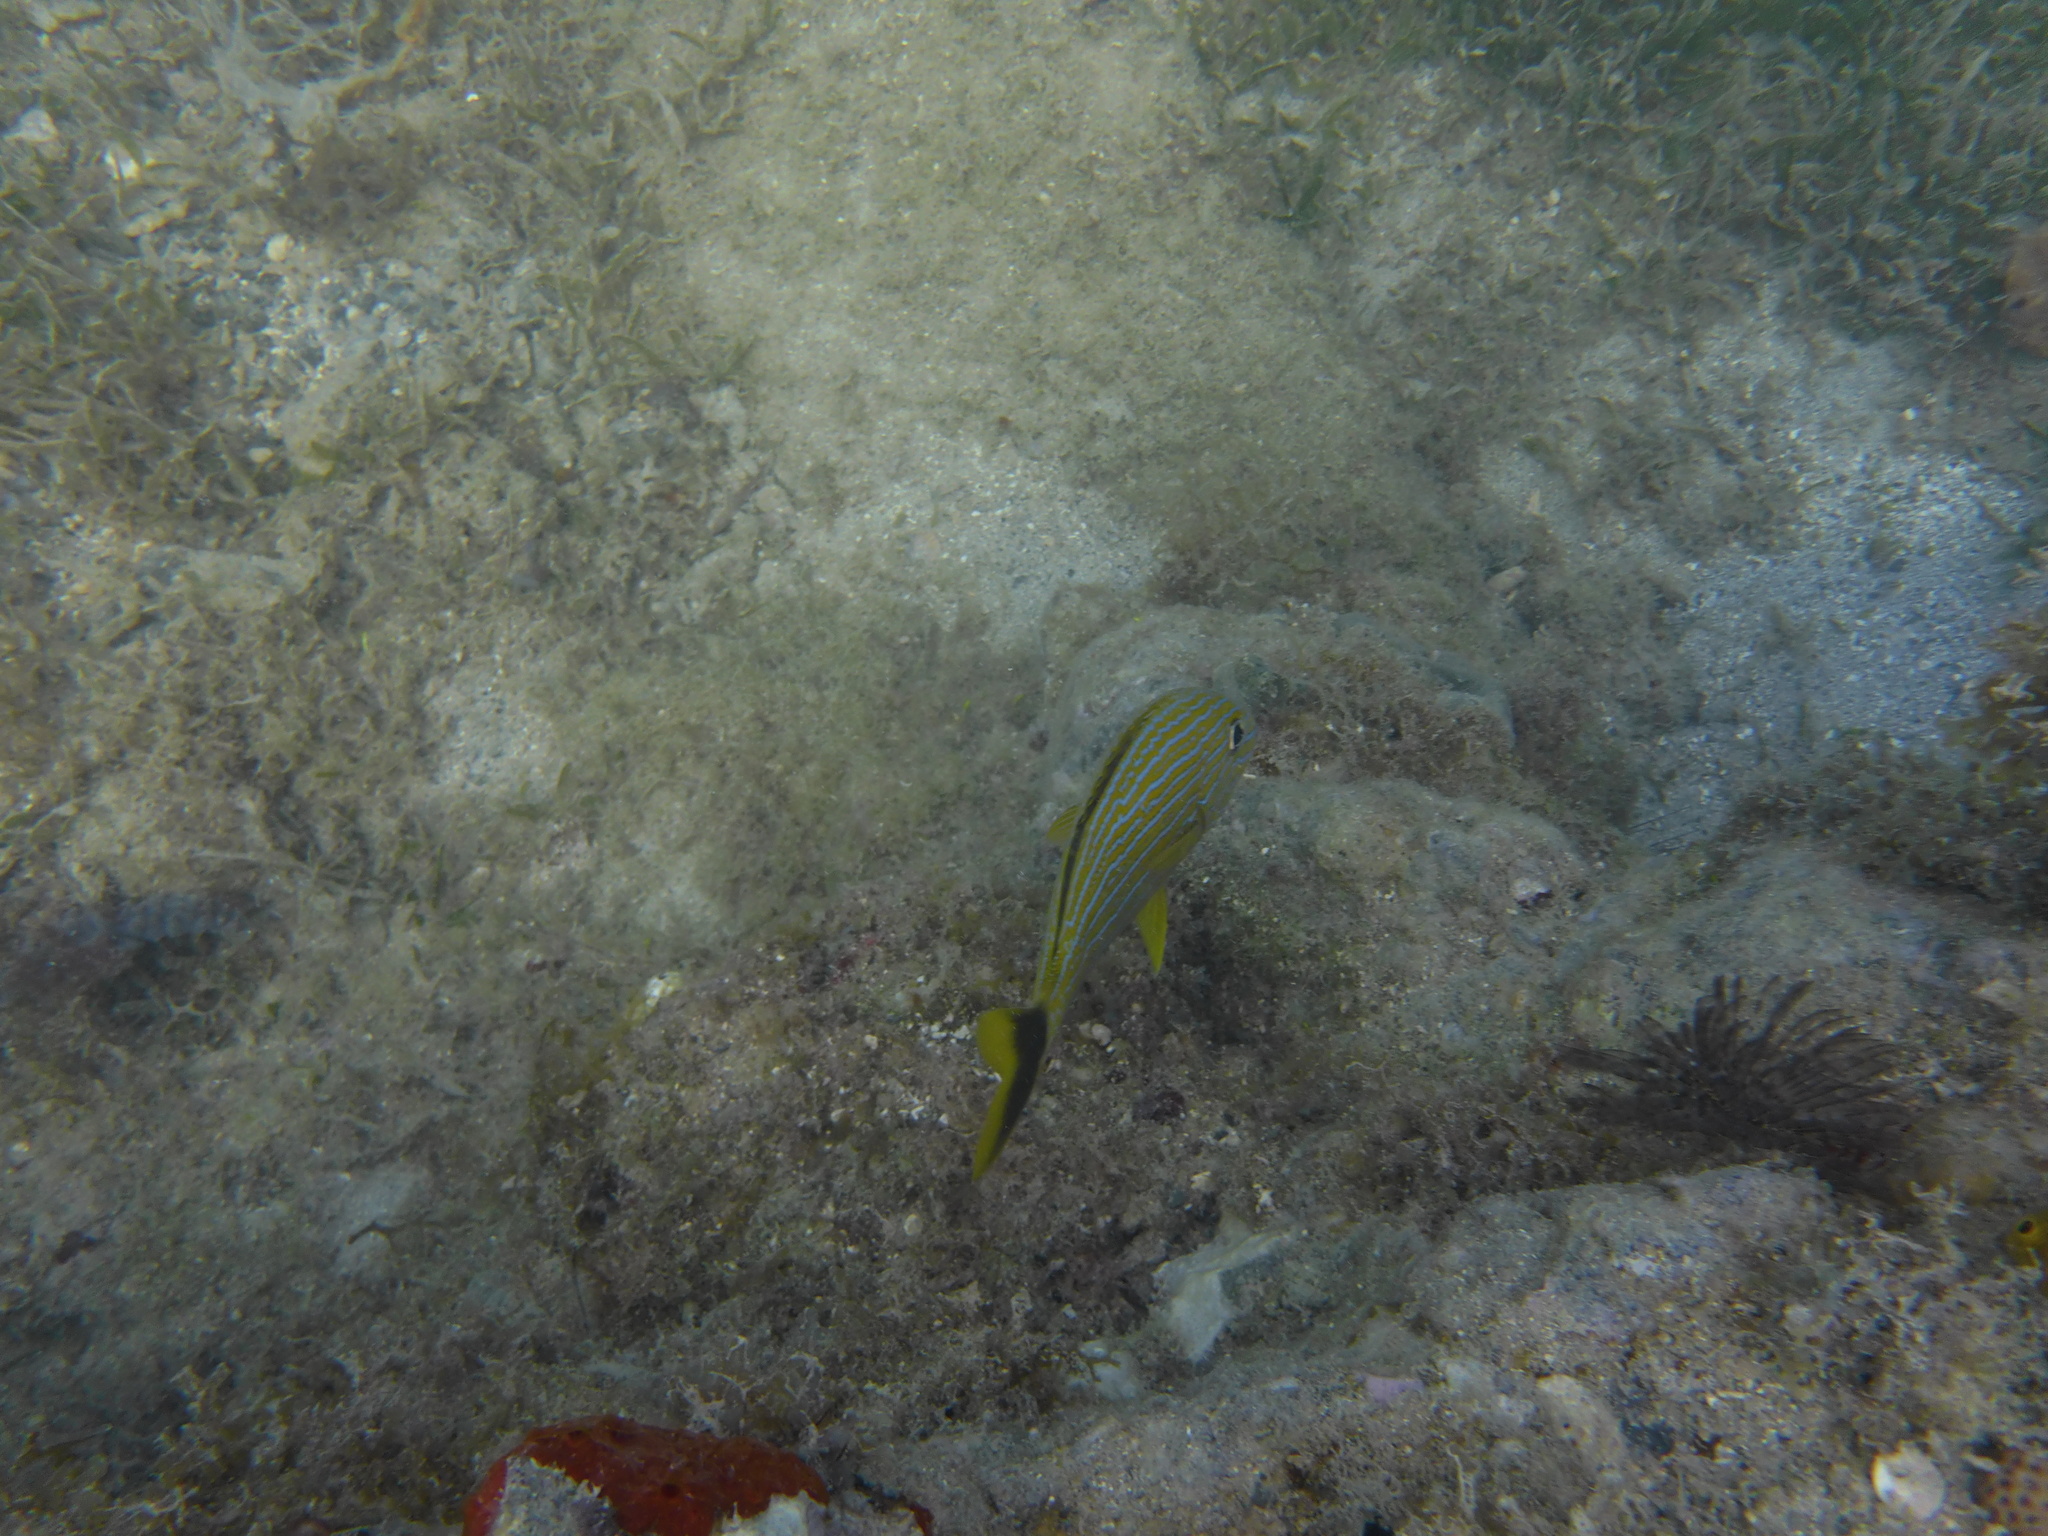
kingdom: Animalia
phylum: Chordata
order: Perciformes
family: Haemulidae
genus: Haemulon
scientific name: Haemulon sciurus
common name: Bluestriped grunt
